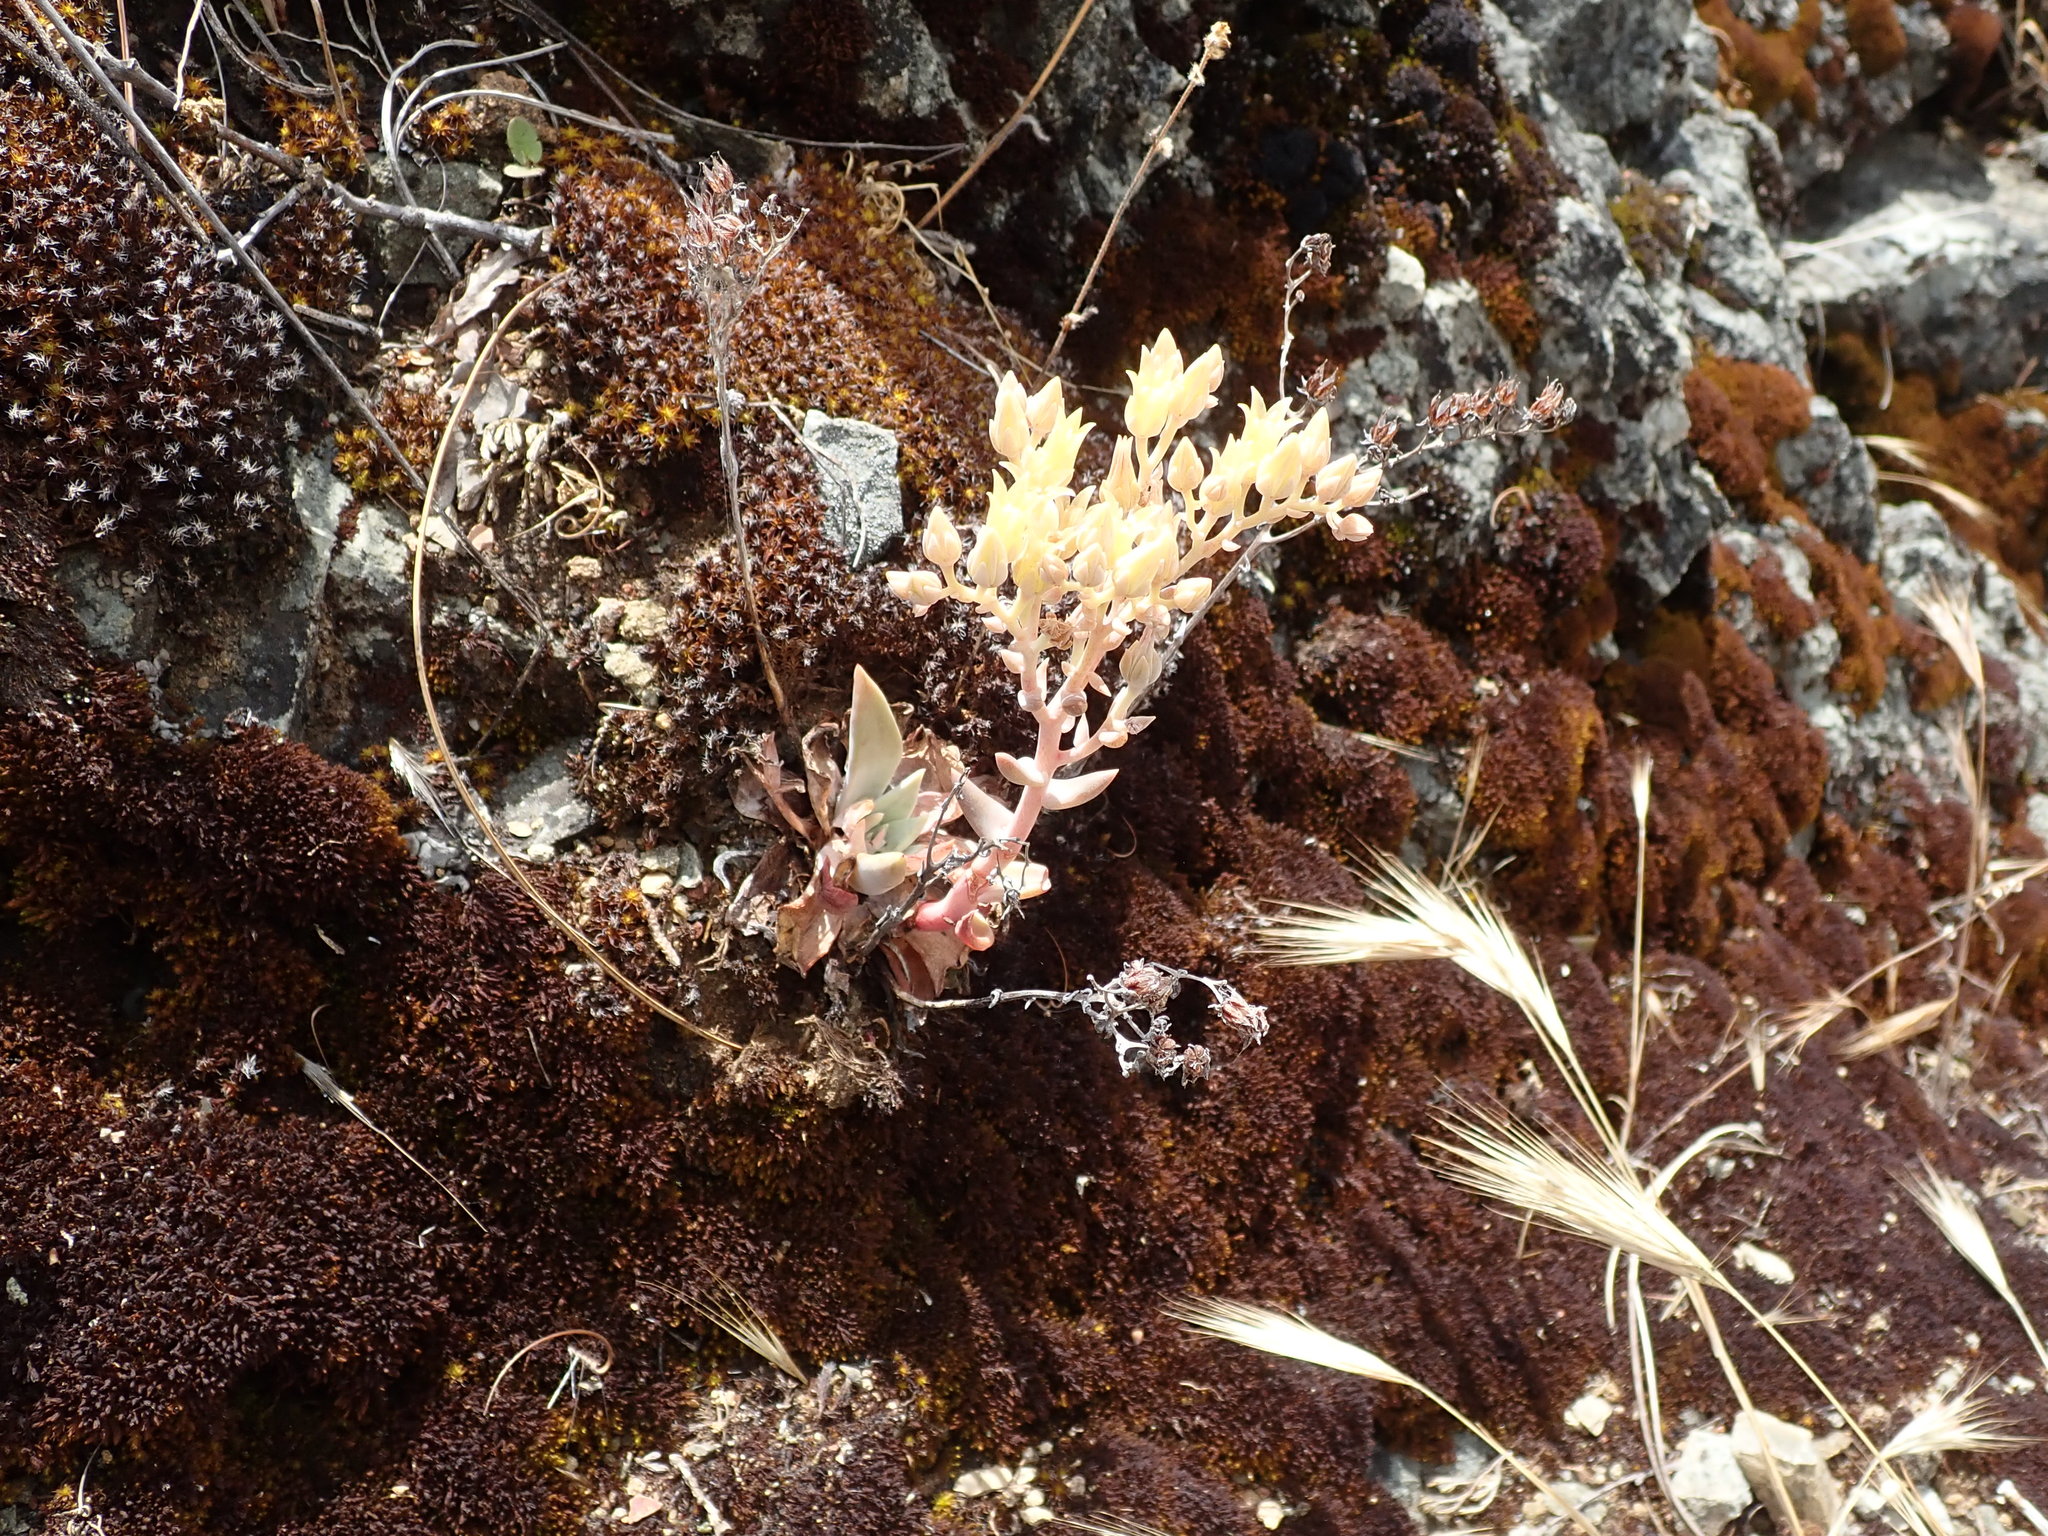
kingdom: Plantae
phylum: Tracheophyta
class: Magnoliopsida
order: Saxifragales
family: Crassulaceae
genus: Dudleya
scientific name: Dudleya cymosa
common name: Canyon dudleya
